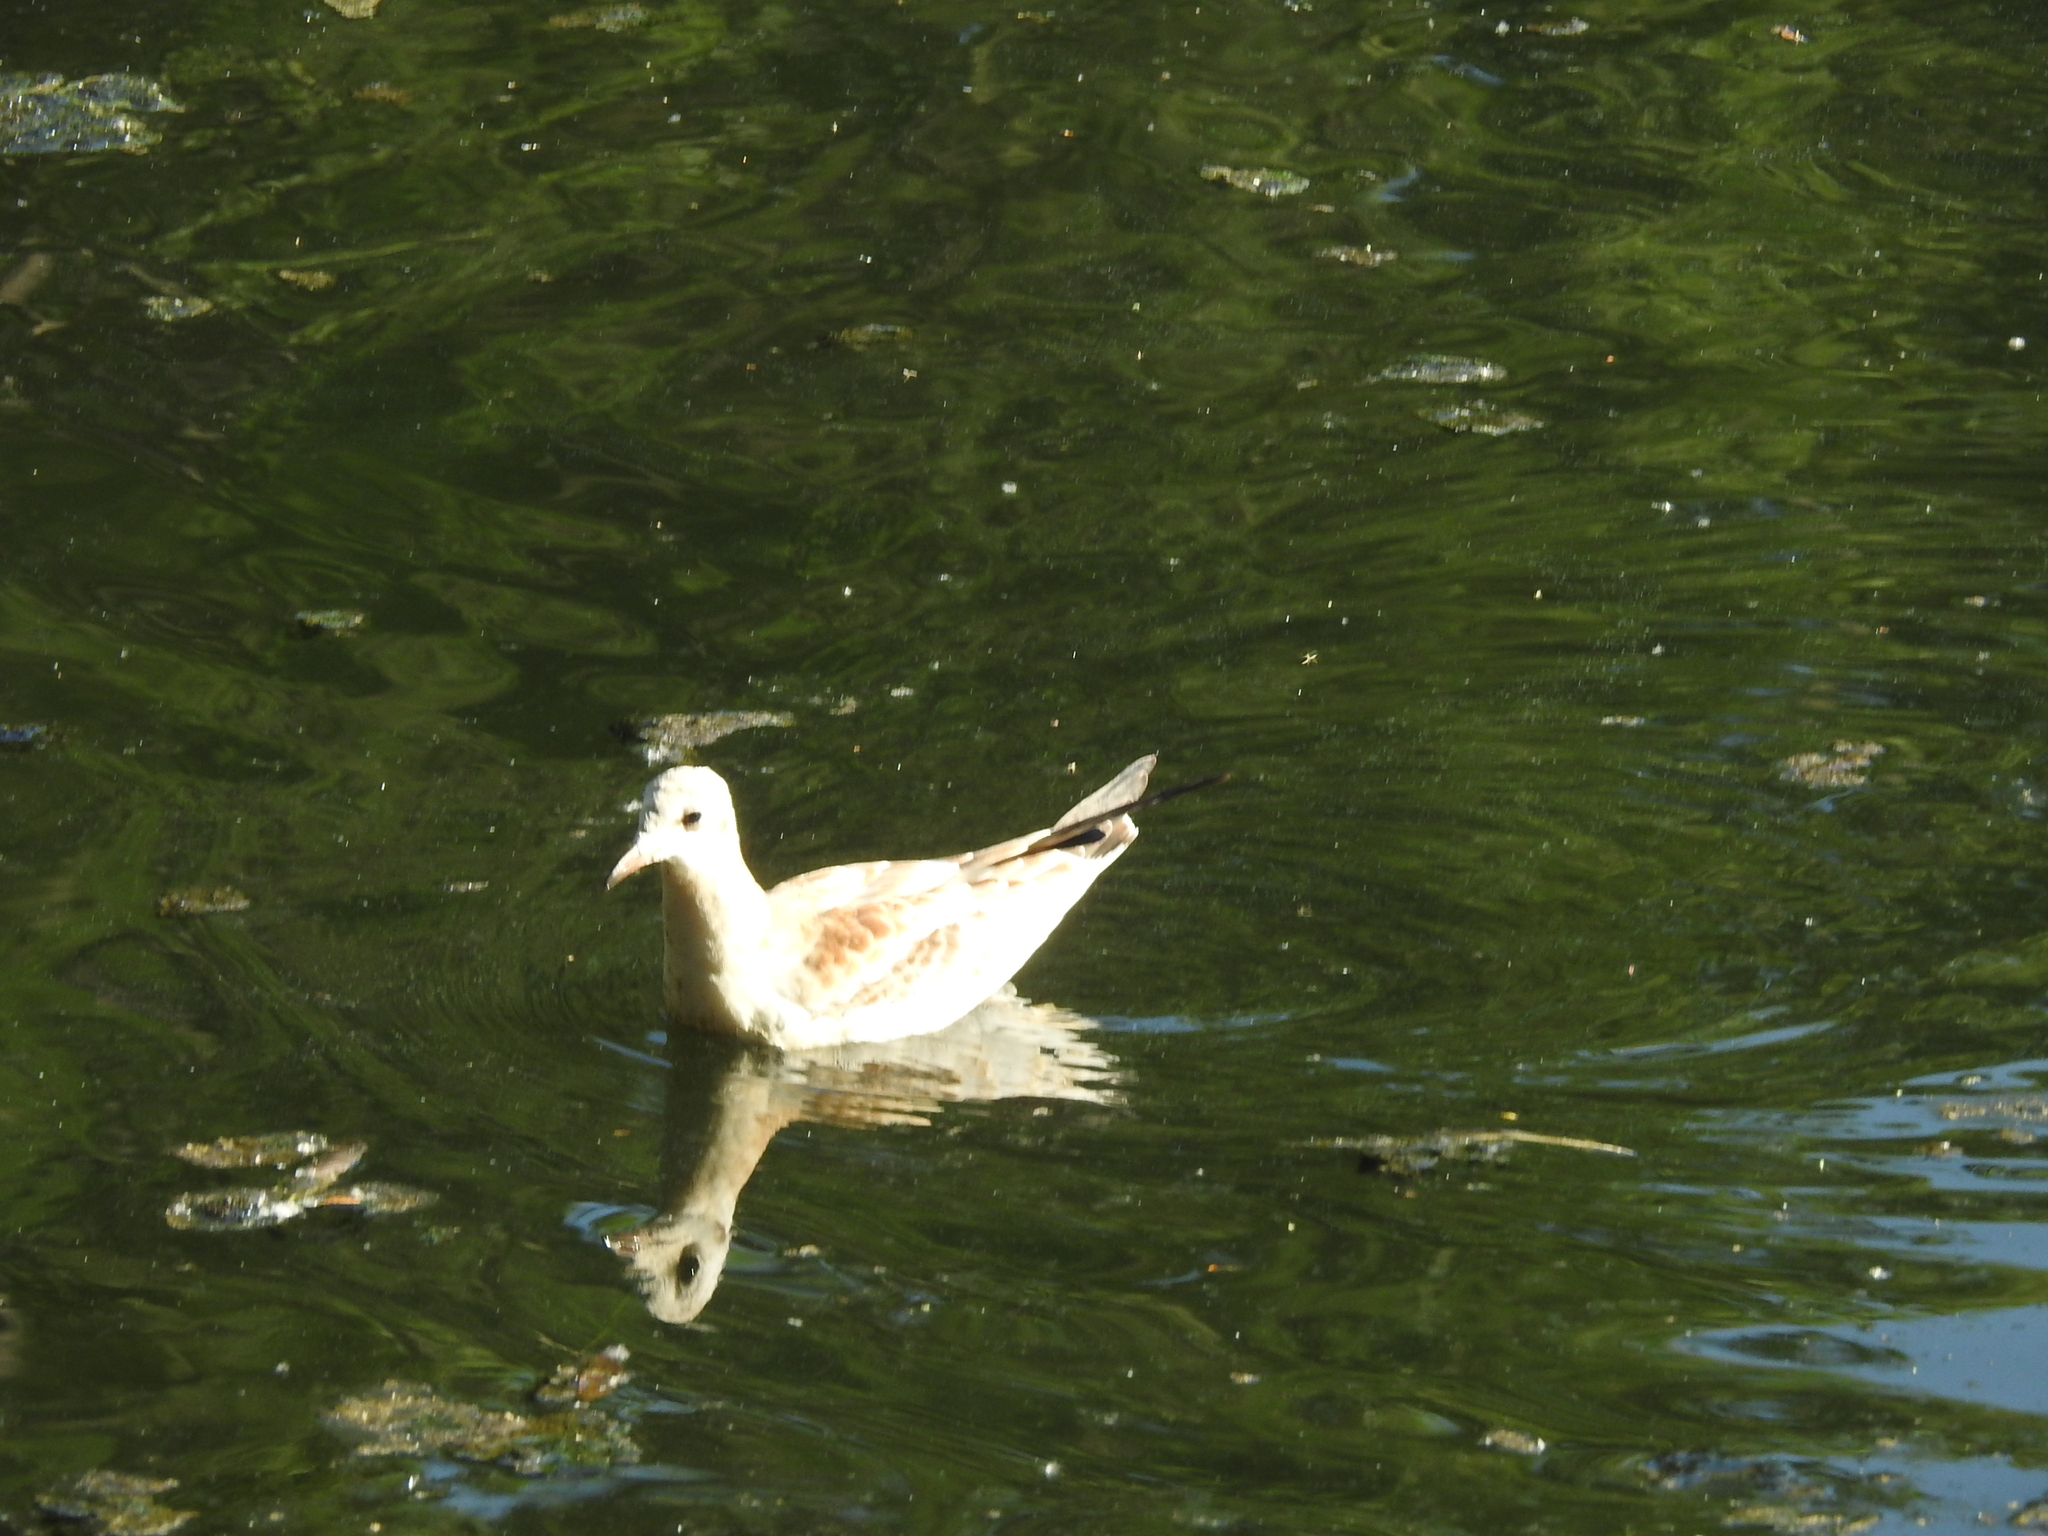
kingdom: Animalia
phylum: Chordata
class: Aves
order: Charadriiformes
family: Laridae
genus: Chroicocephalus
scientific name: Chroicocephalus ridibundus
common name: Black-headed gull
